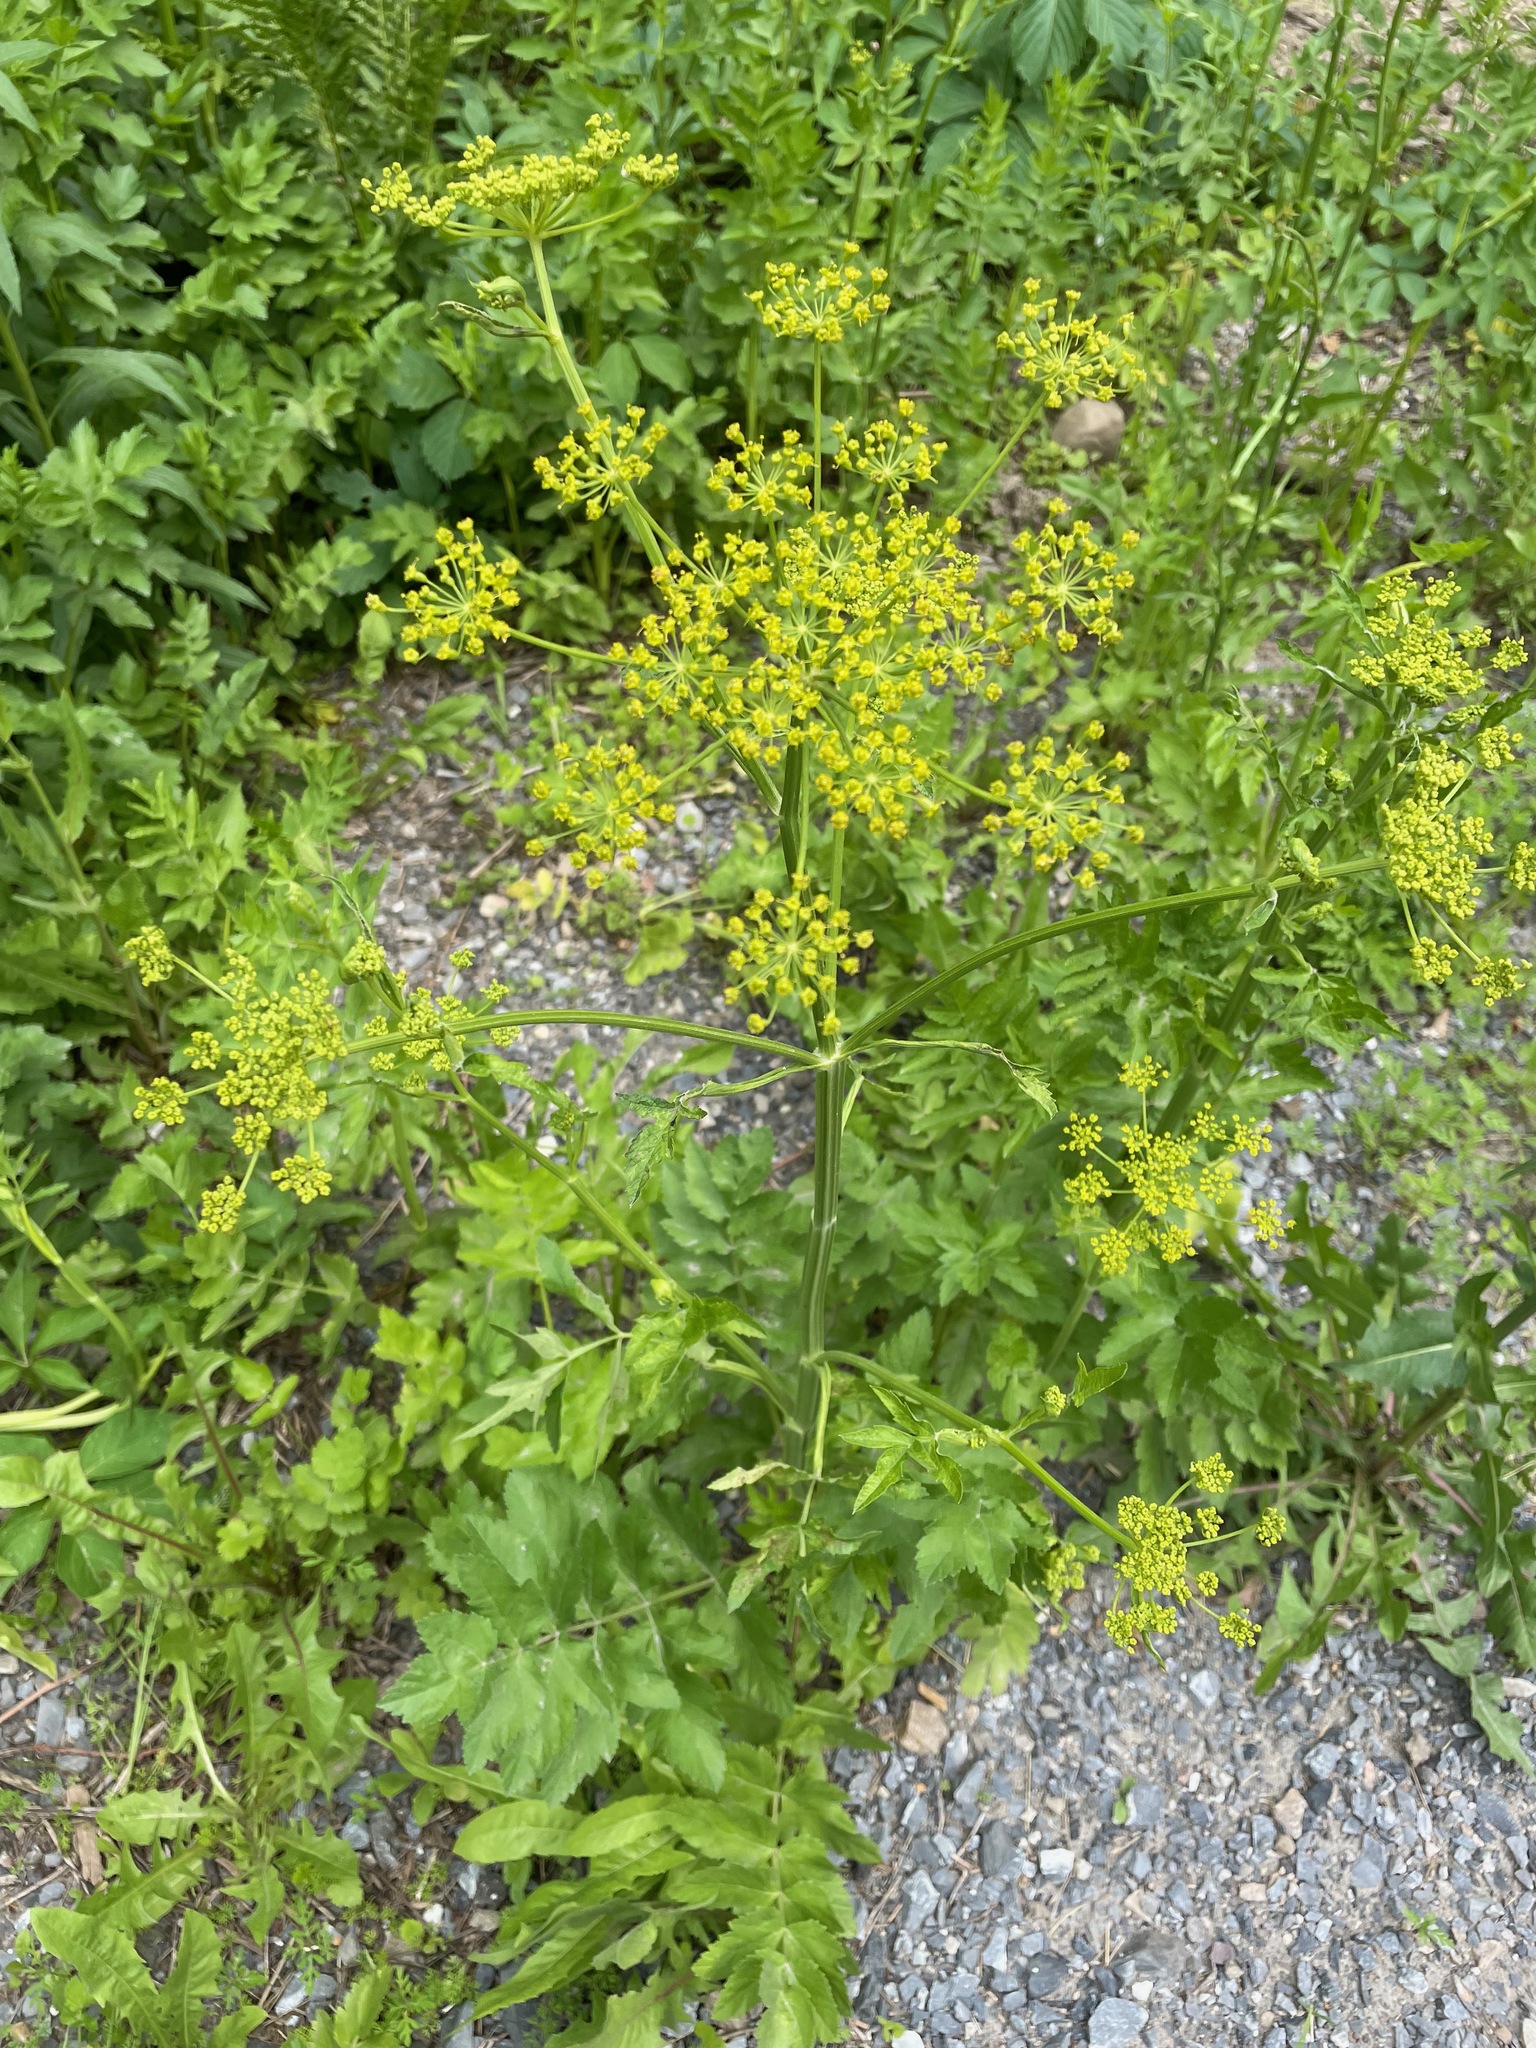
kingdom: Plantae
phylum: Tracheophyta
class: Magnoliopsida
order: Apiales
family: Apiaceae
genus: Pastinaca
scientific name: Pastinaca sativa
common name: Wild parsnip
